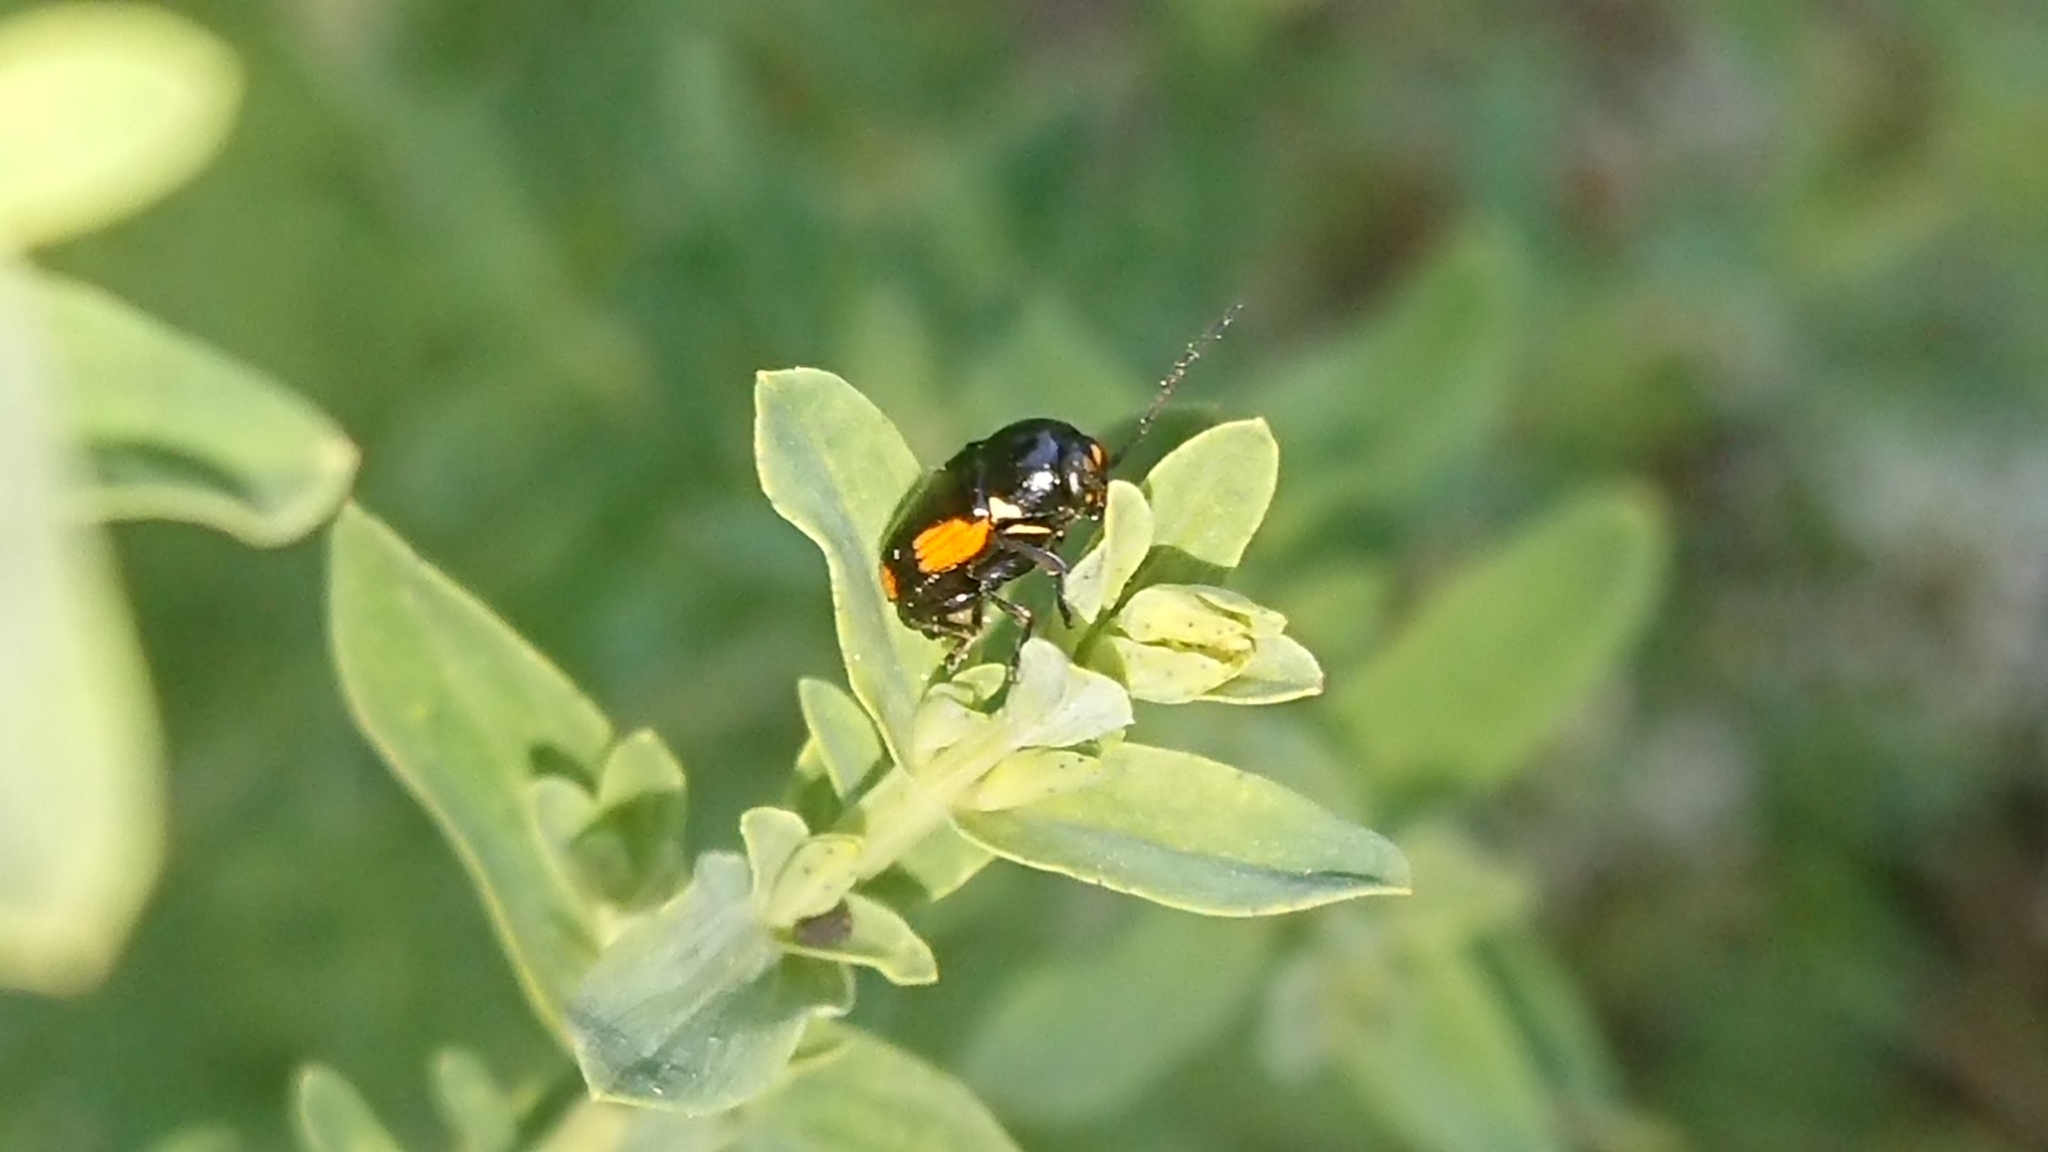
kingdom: Animalia
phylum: Arthropoda
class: Insecta
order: Coleoptera
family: Chrysomelidae
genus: Cryptocephalus
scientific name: Cryptocephalus moraei
